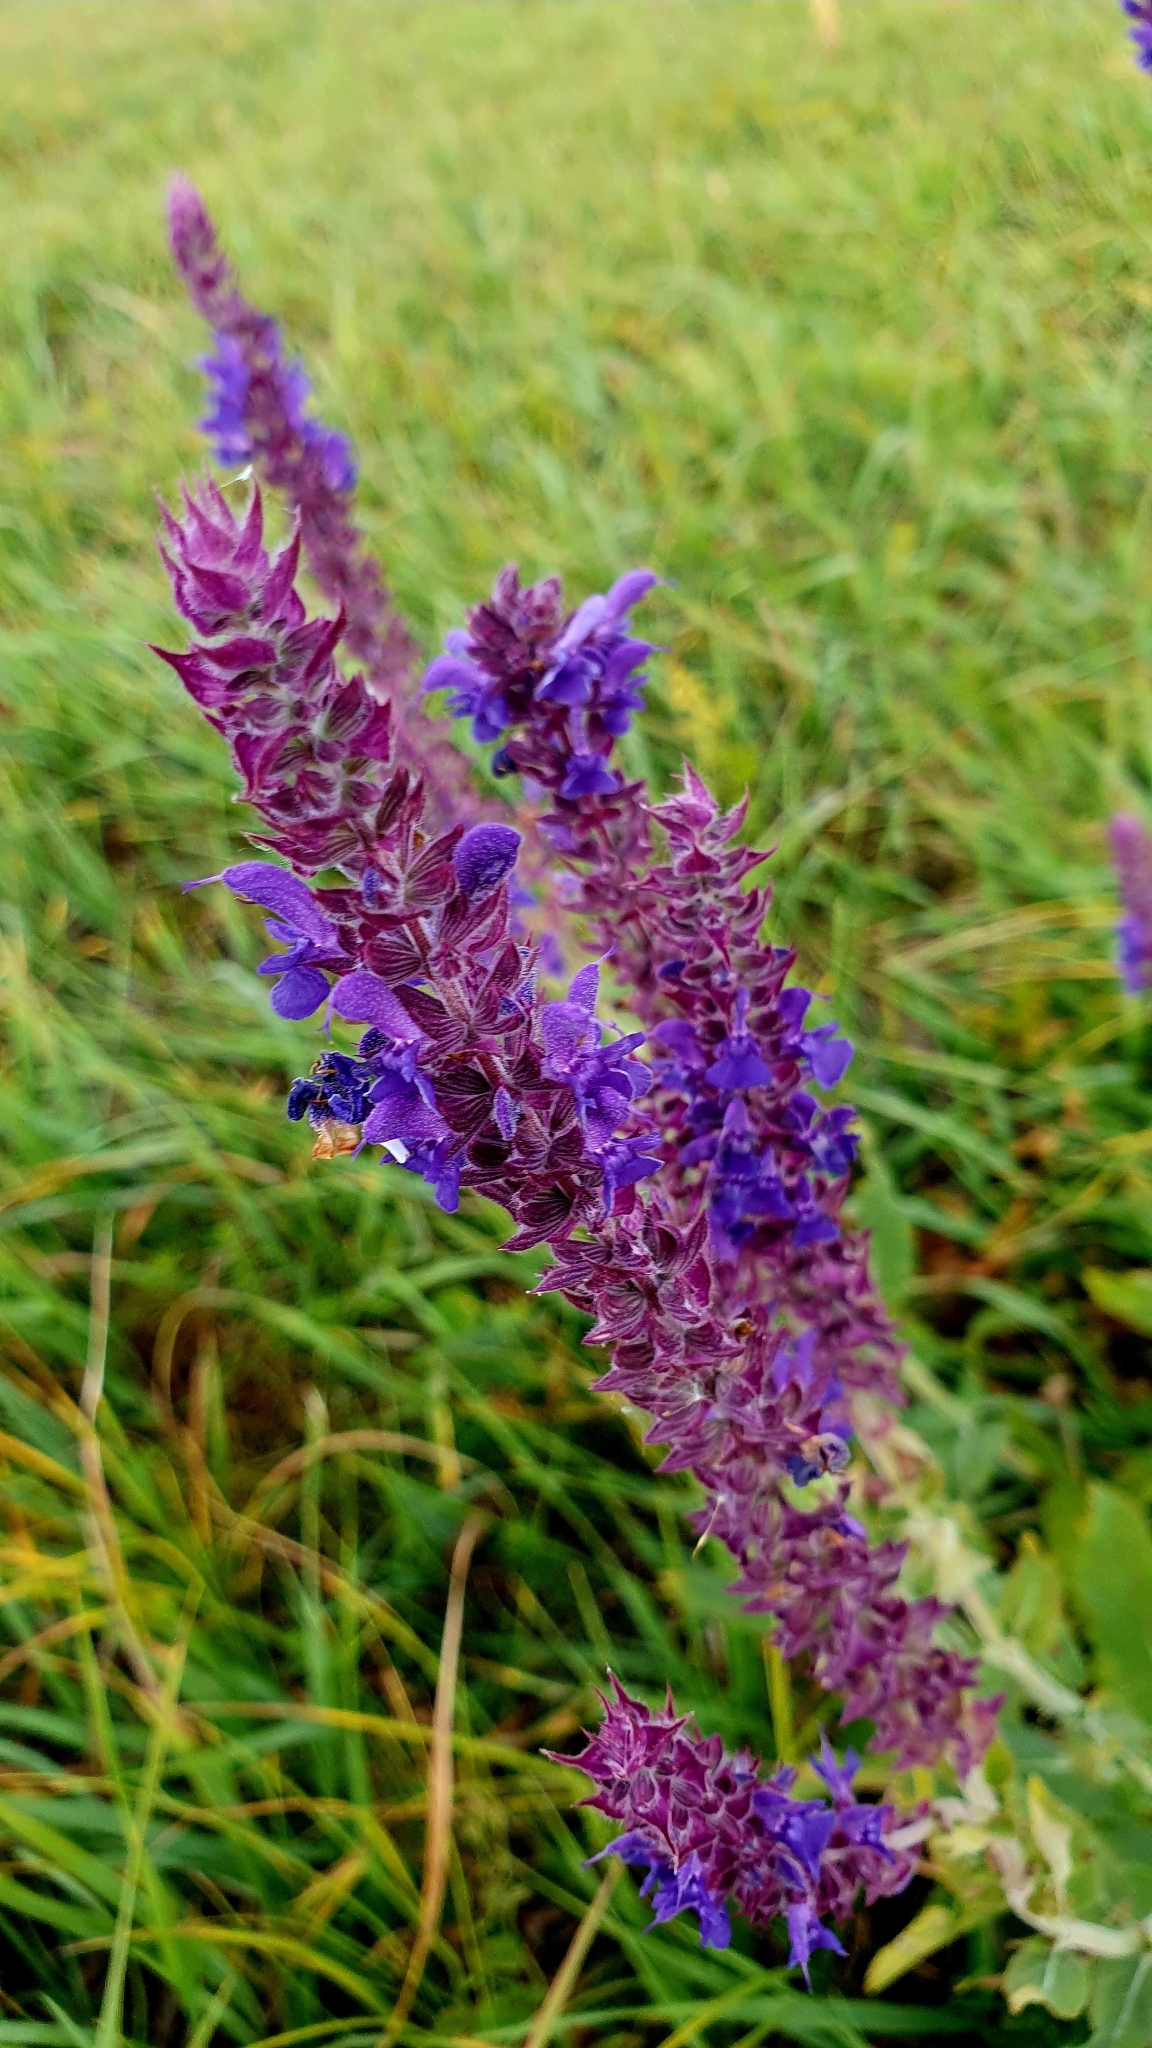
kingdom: Plantae
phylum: Tracheophyta
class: Magnoliopsida
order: Lamiales
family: Lamiaceae
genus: Salvia
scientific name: Salvia nemorosa
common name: Balkan clary
